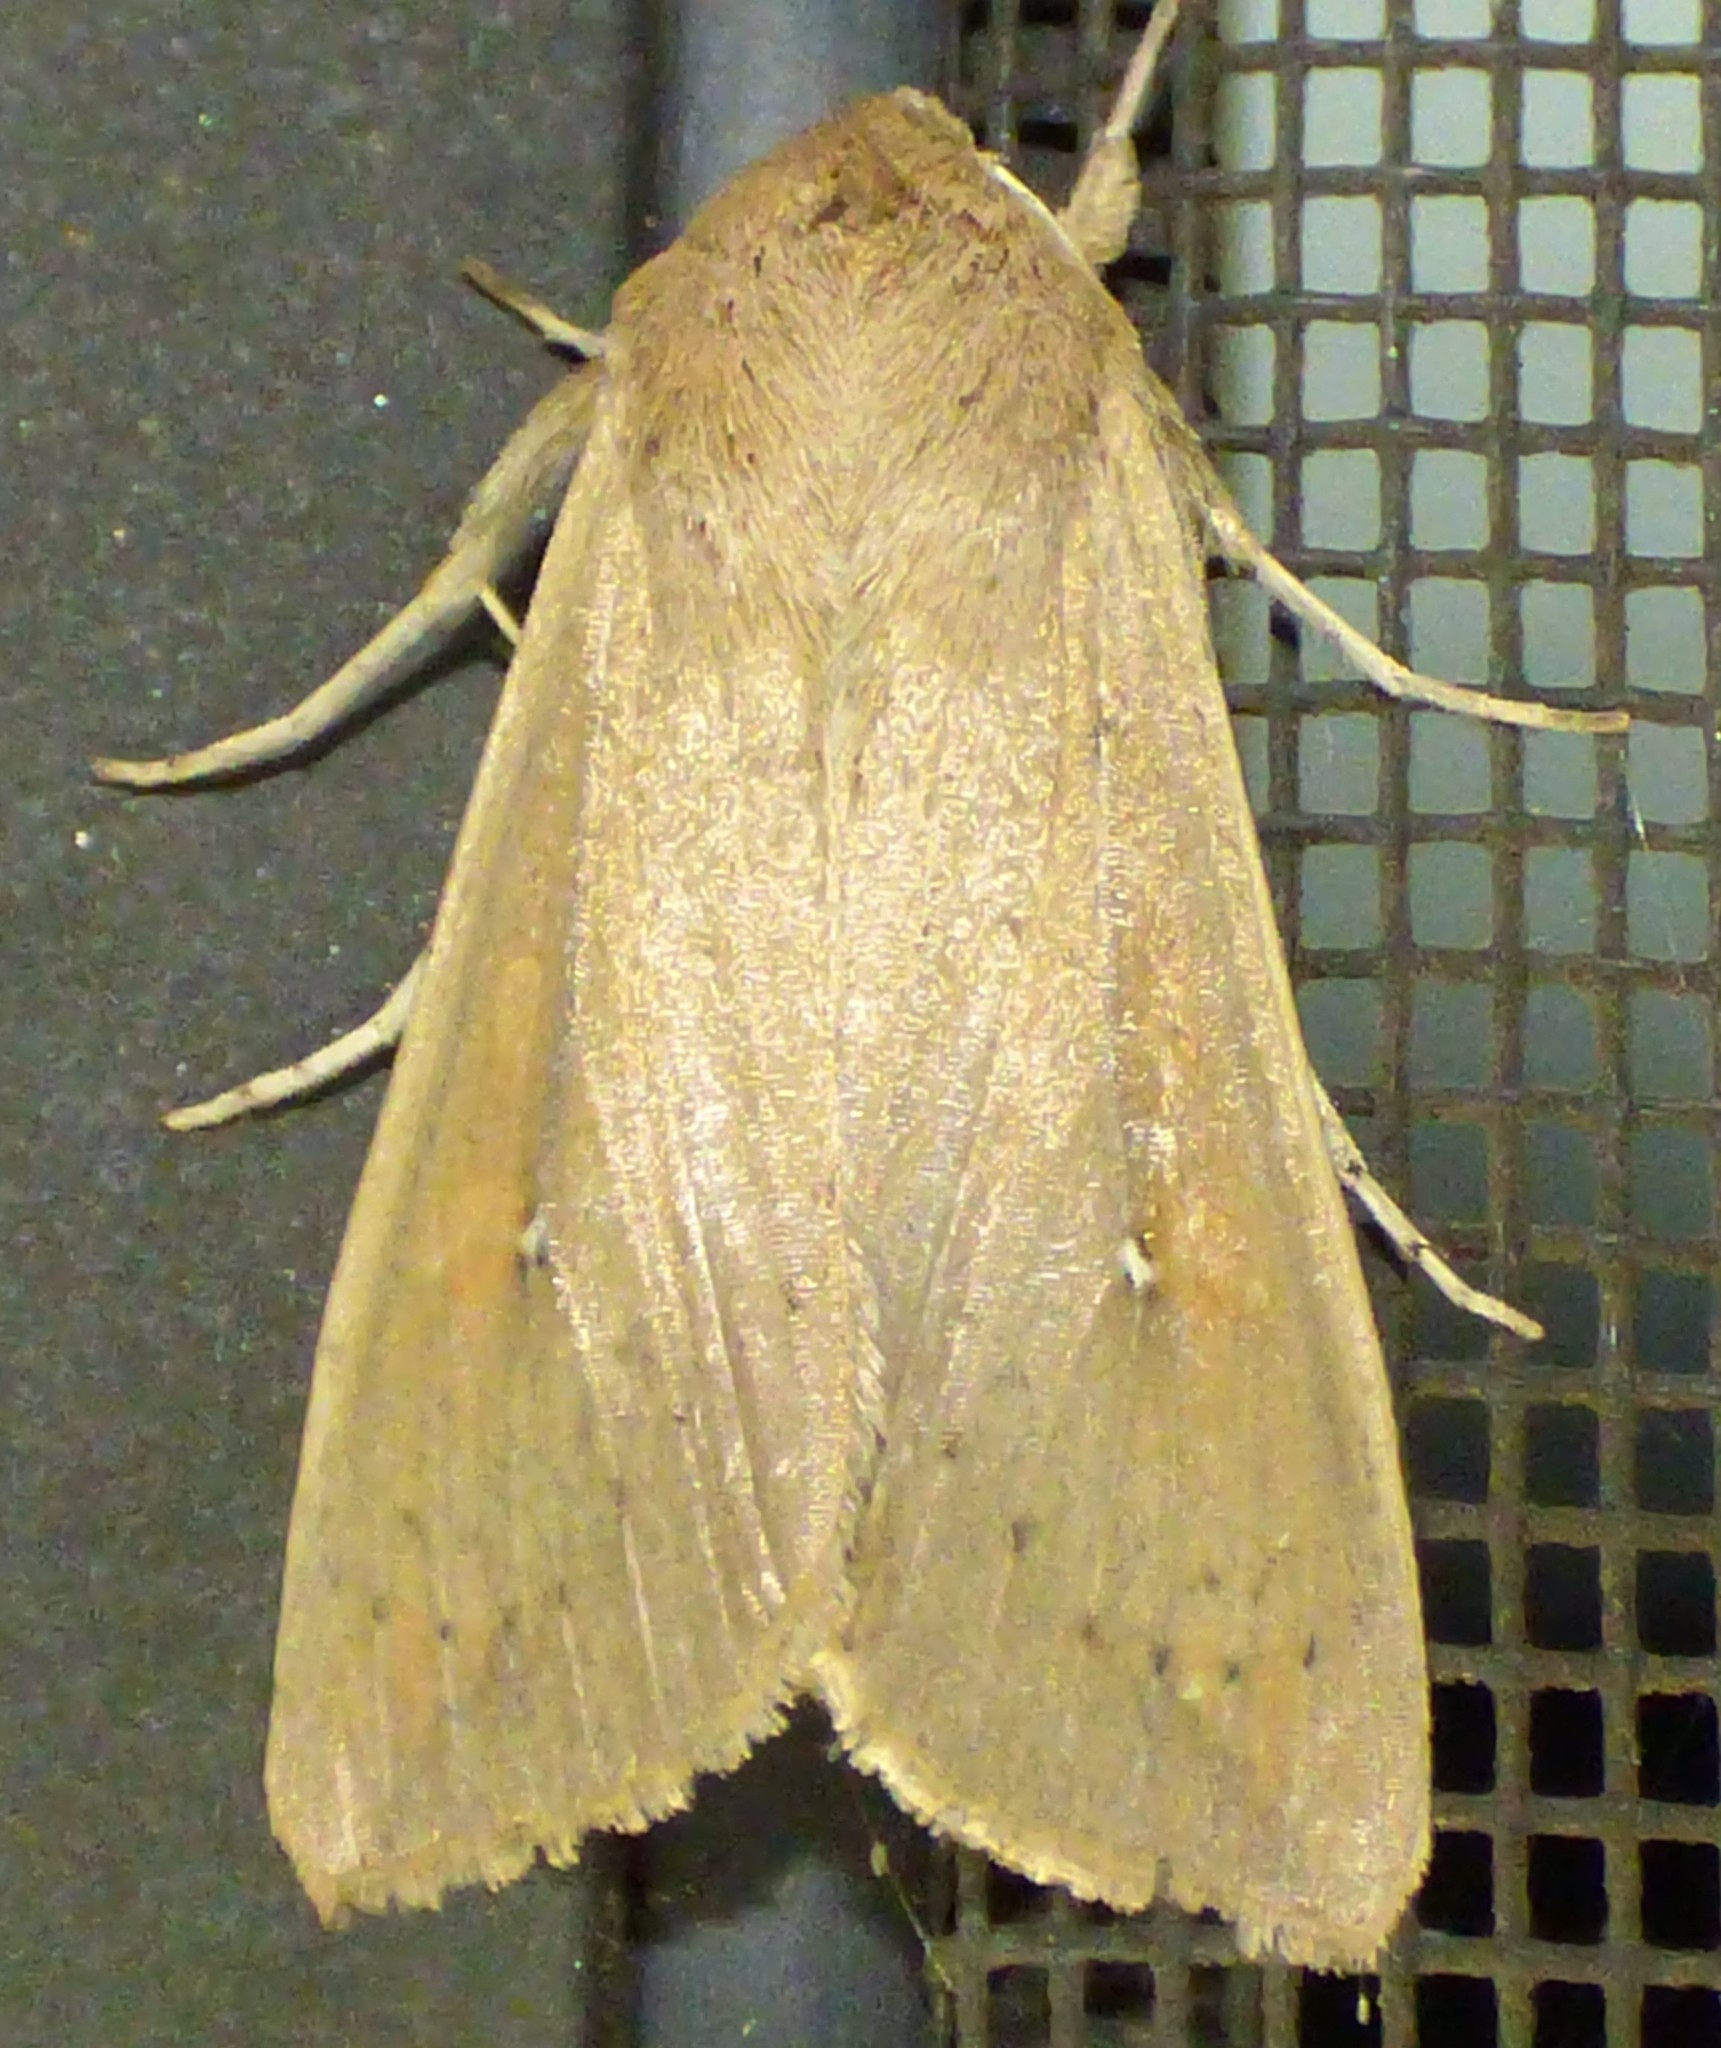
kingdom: Animalia
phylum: Arthropoda
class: Insecta
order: Lepidoptera
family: Noctuidae
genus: Mythimna
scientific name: Mythimna unipuncta
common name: White-speck
